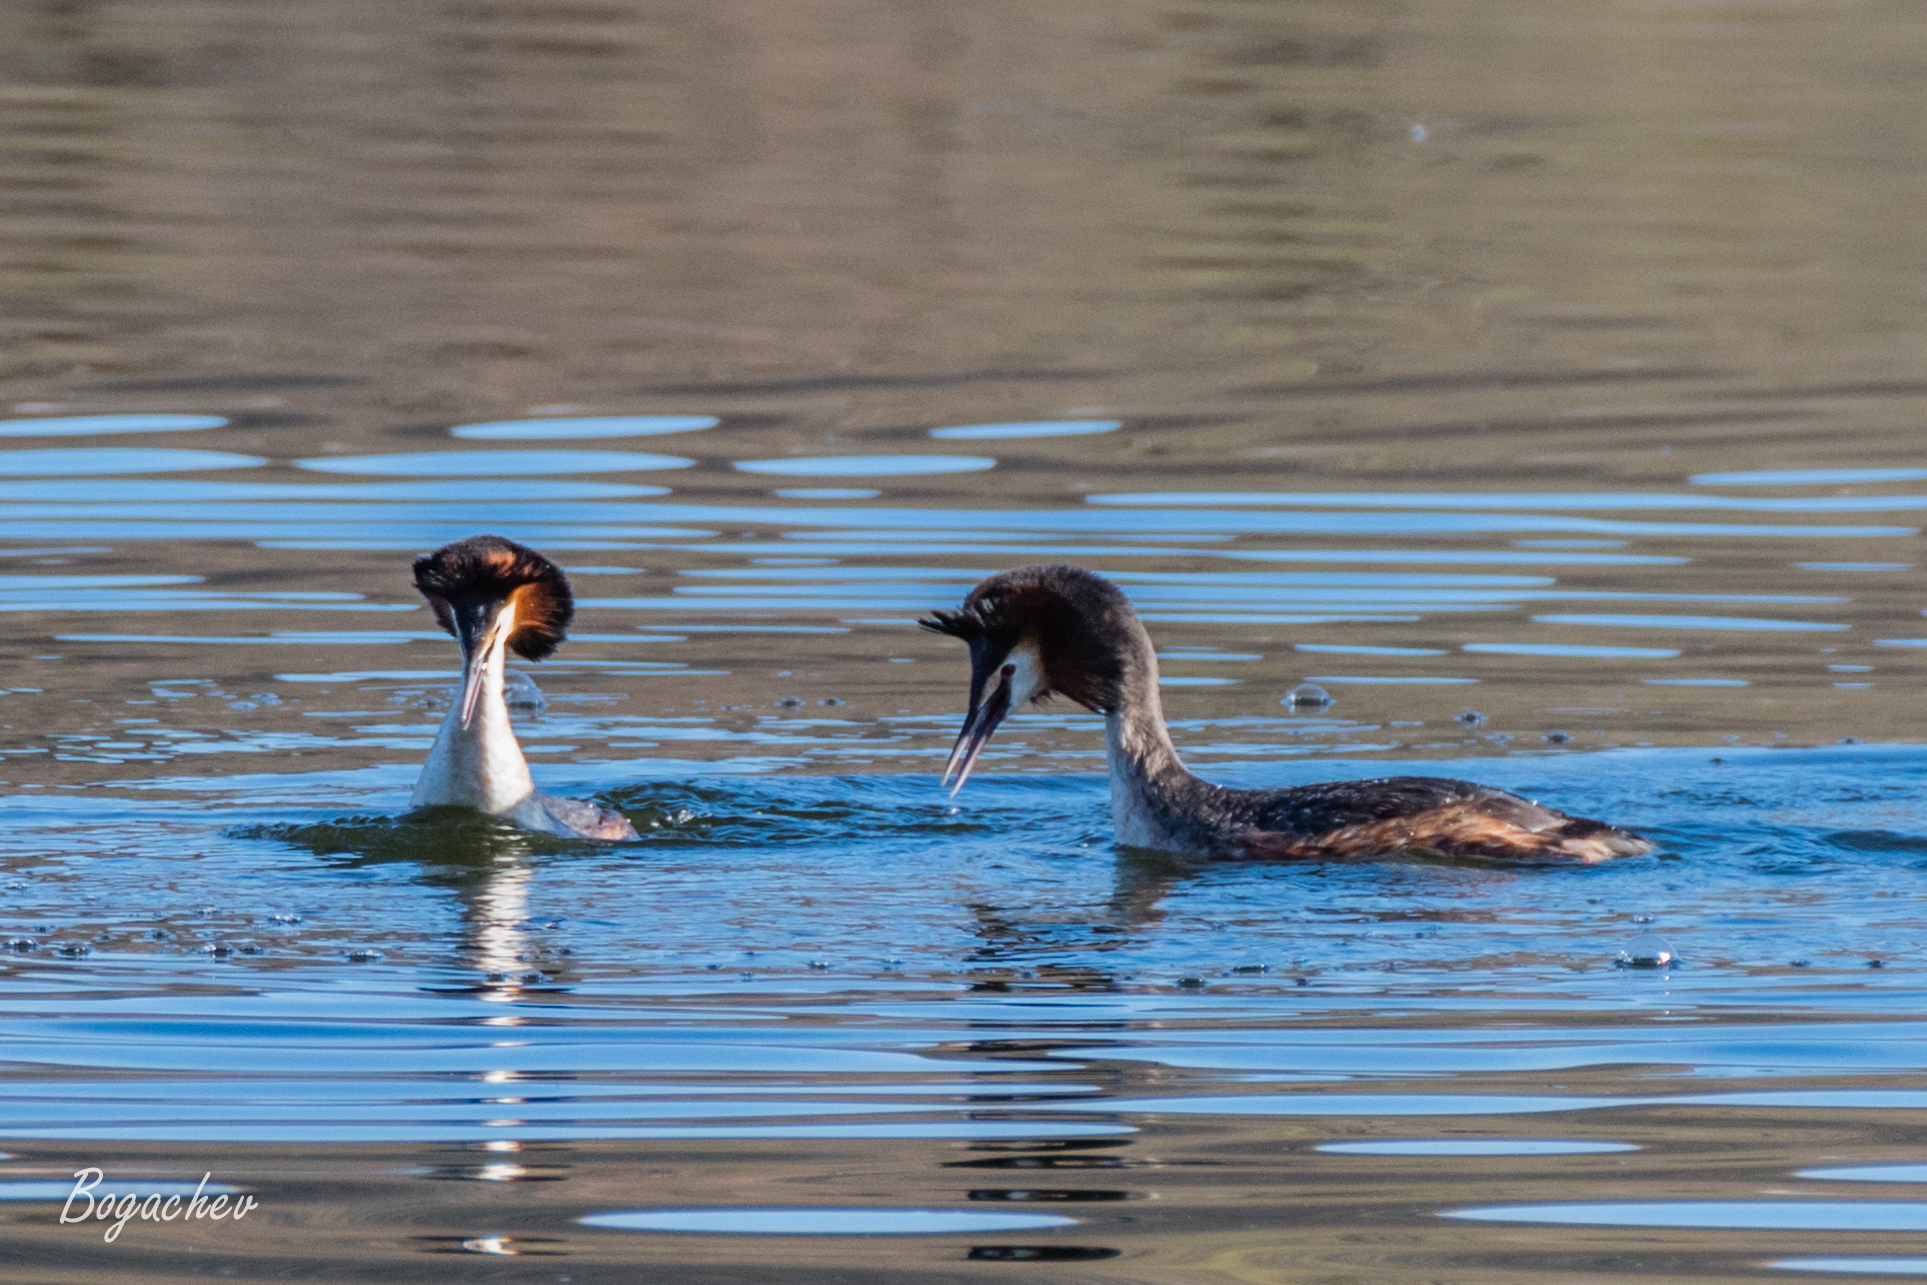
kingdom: Animalia
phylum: Chordata
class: Aves
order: Podicipediformes
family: Podicipedidae
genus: Podiceps
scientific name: Podiceps cristatus
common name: Great crested grebe
